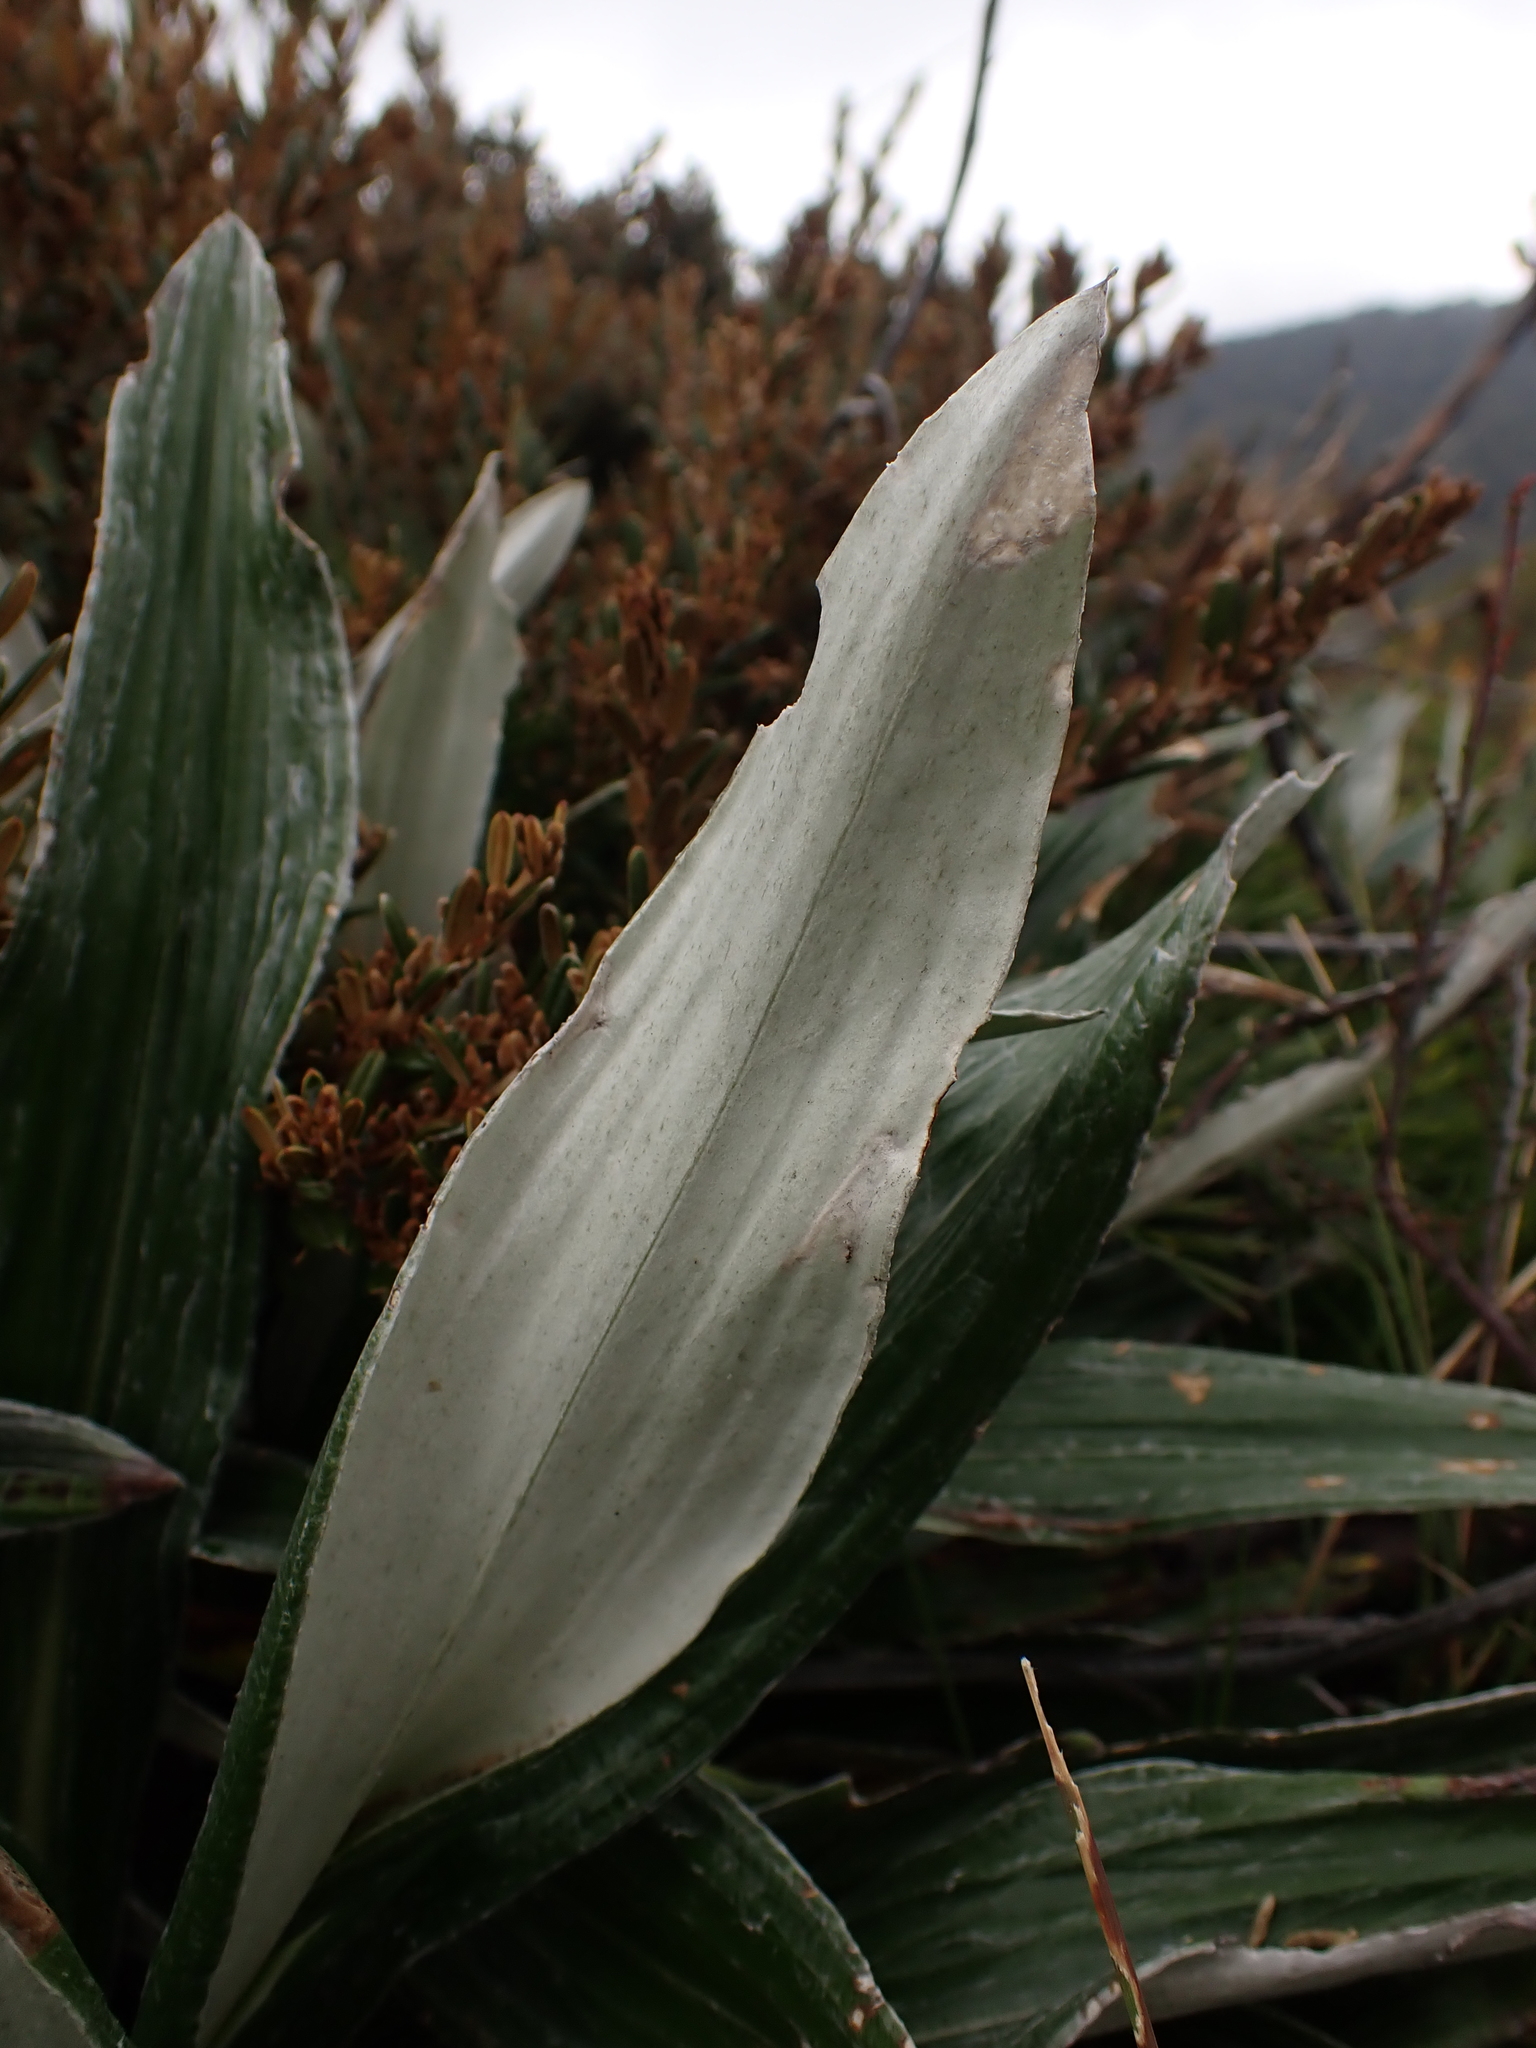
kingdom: Plantae
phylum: Tracheophyta
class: Magnoliopsida
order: Asterales
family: Asteraceae
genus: Celmisia
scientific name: Celmisia latifolia
